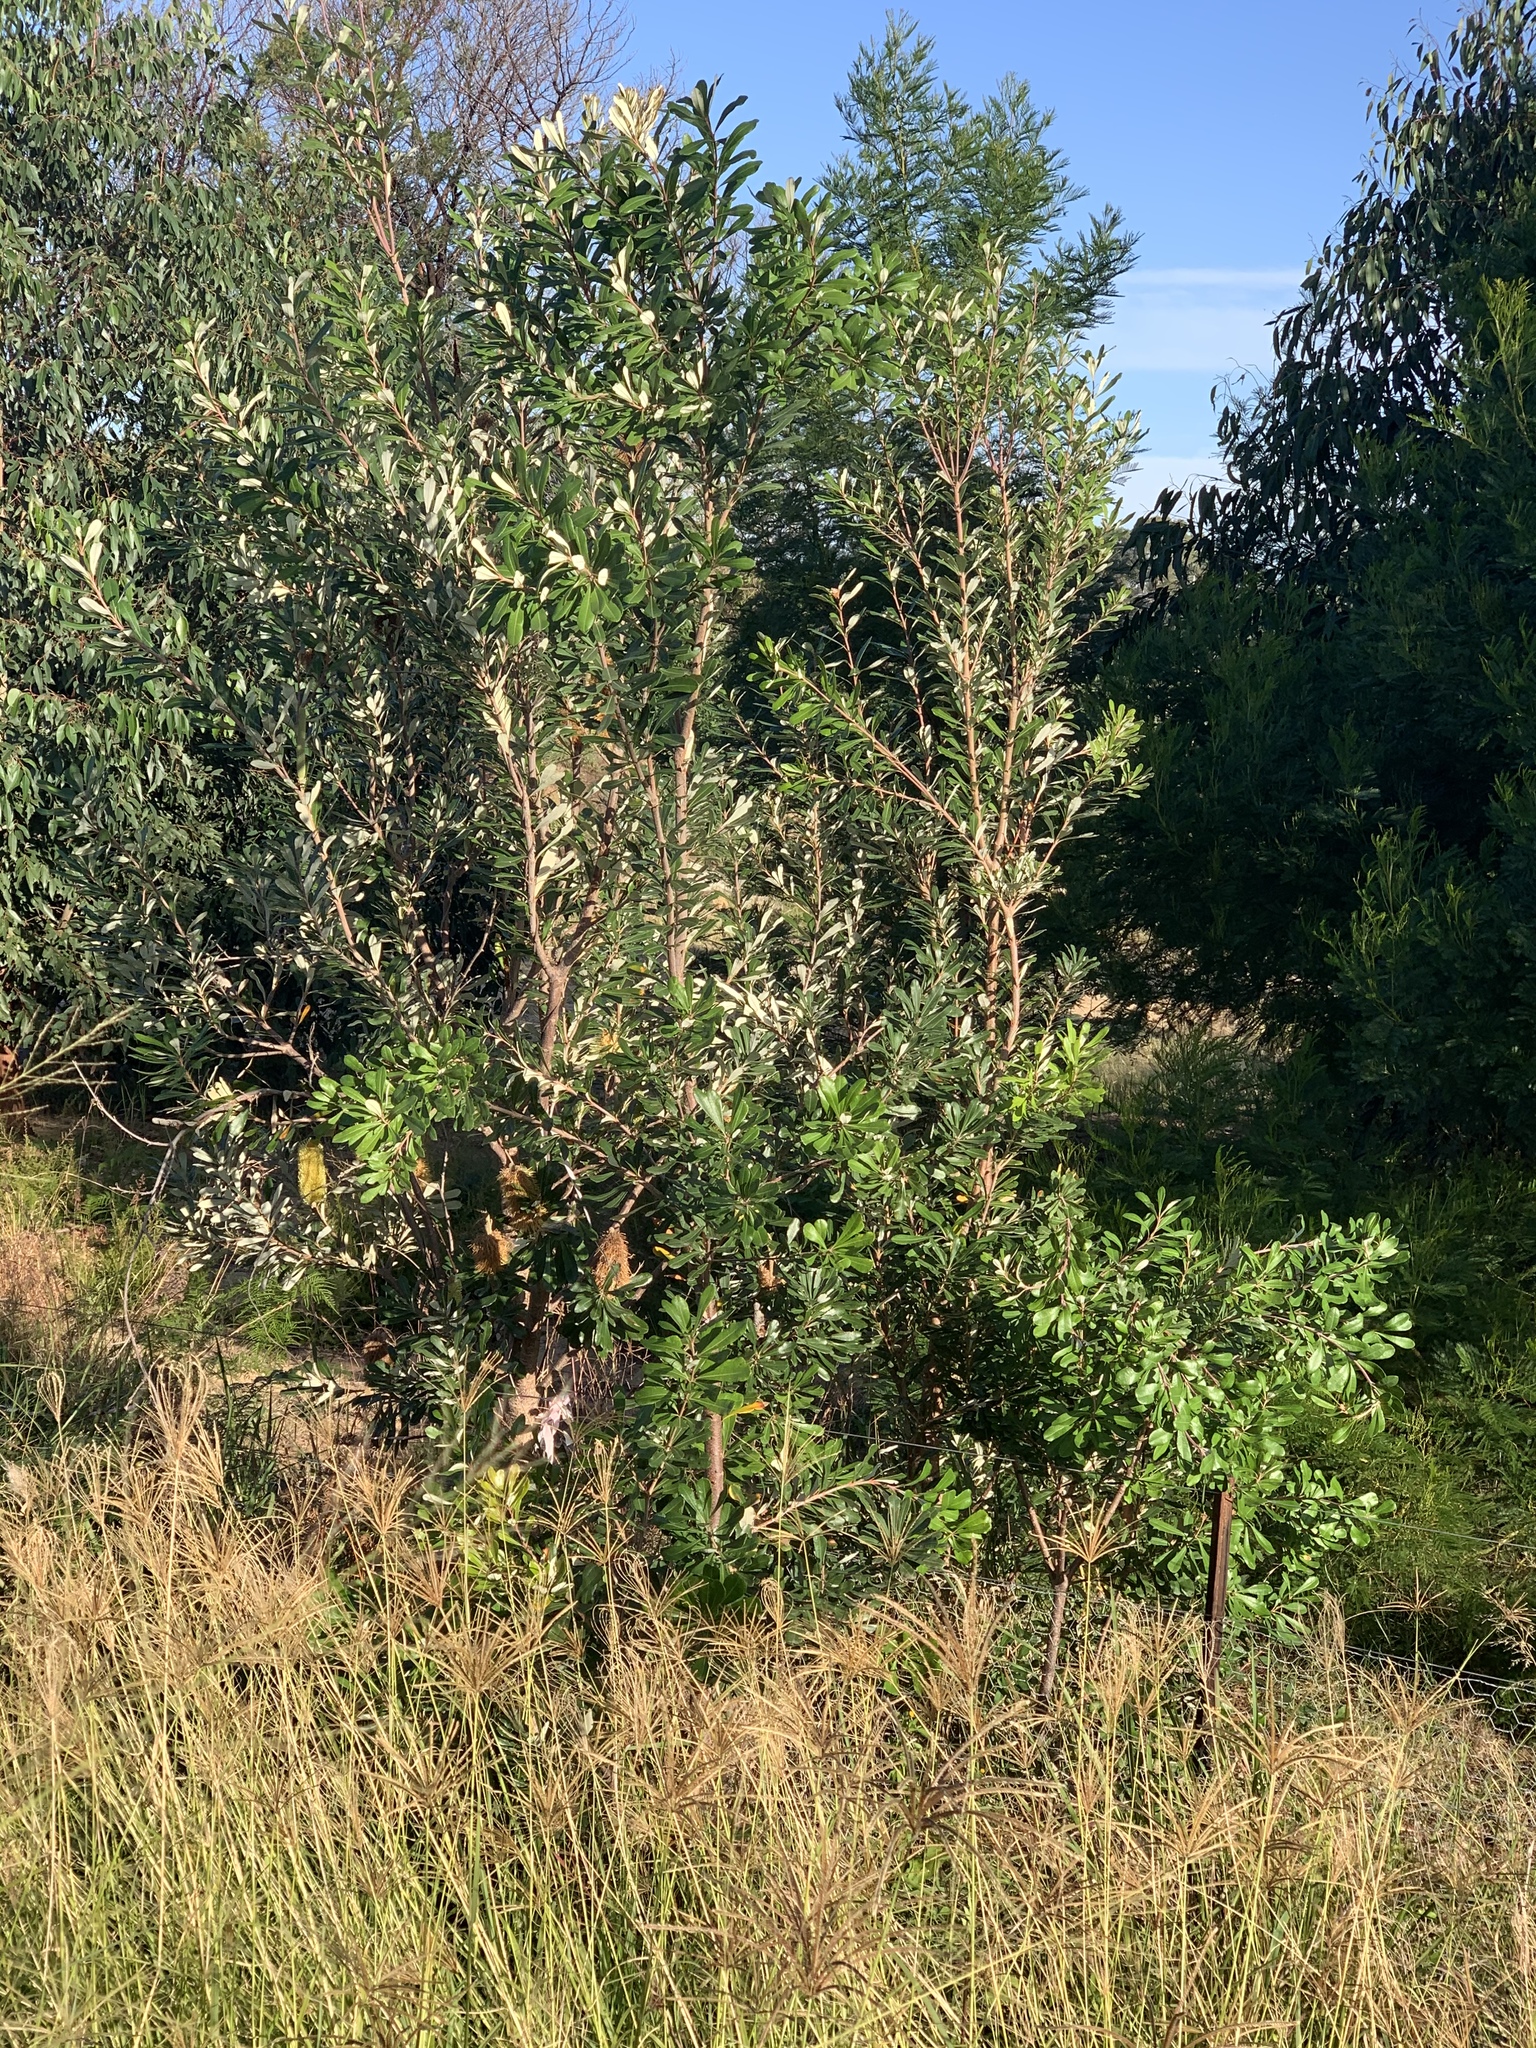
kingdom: Plantae
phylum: Tracheophyta
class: Magnoliopsida
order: Proteales
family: Proteaceae
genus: Banksia
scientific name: Banksia integrifolia
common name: White-honeysuckle
